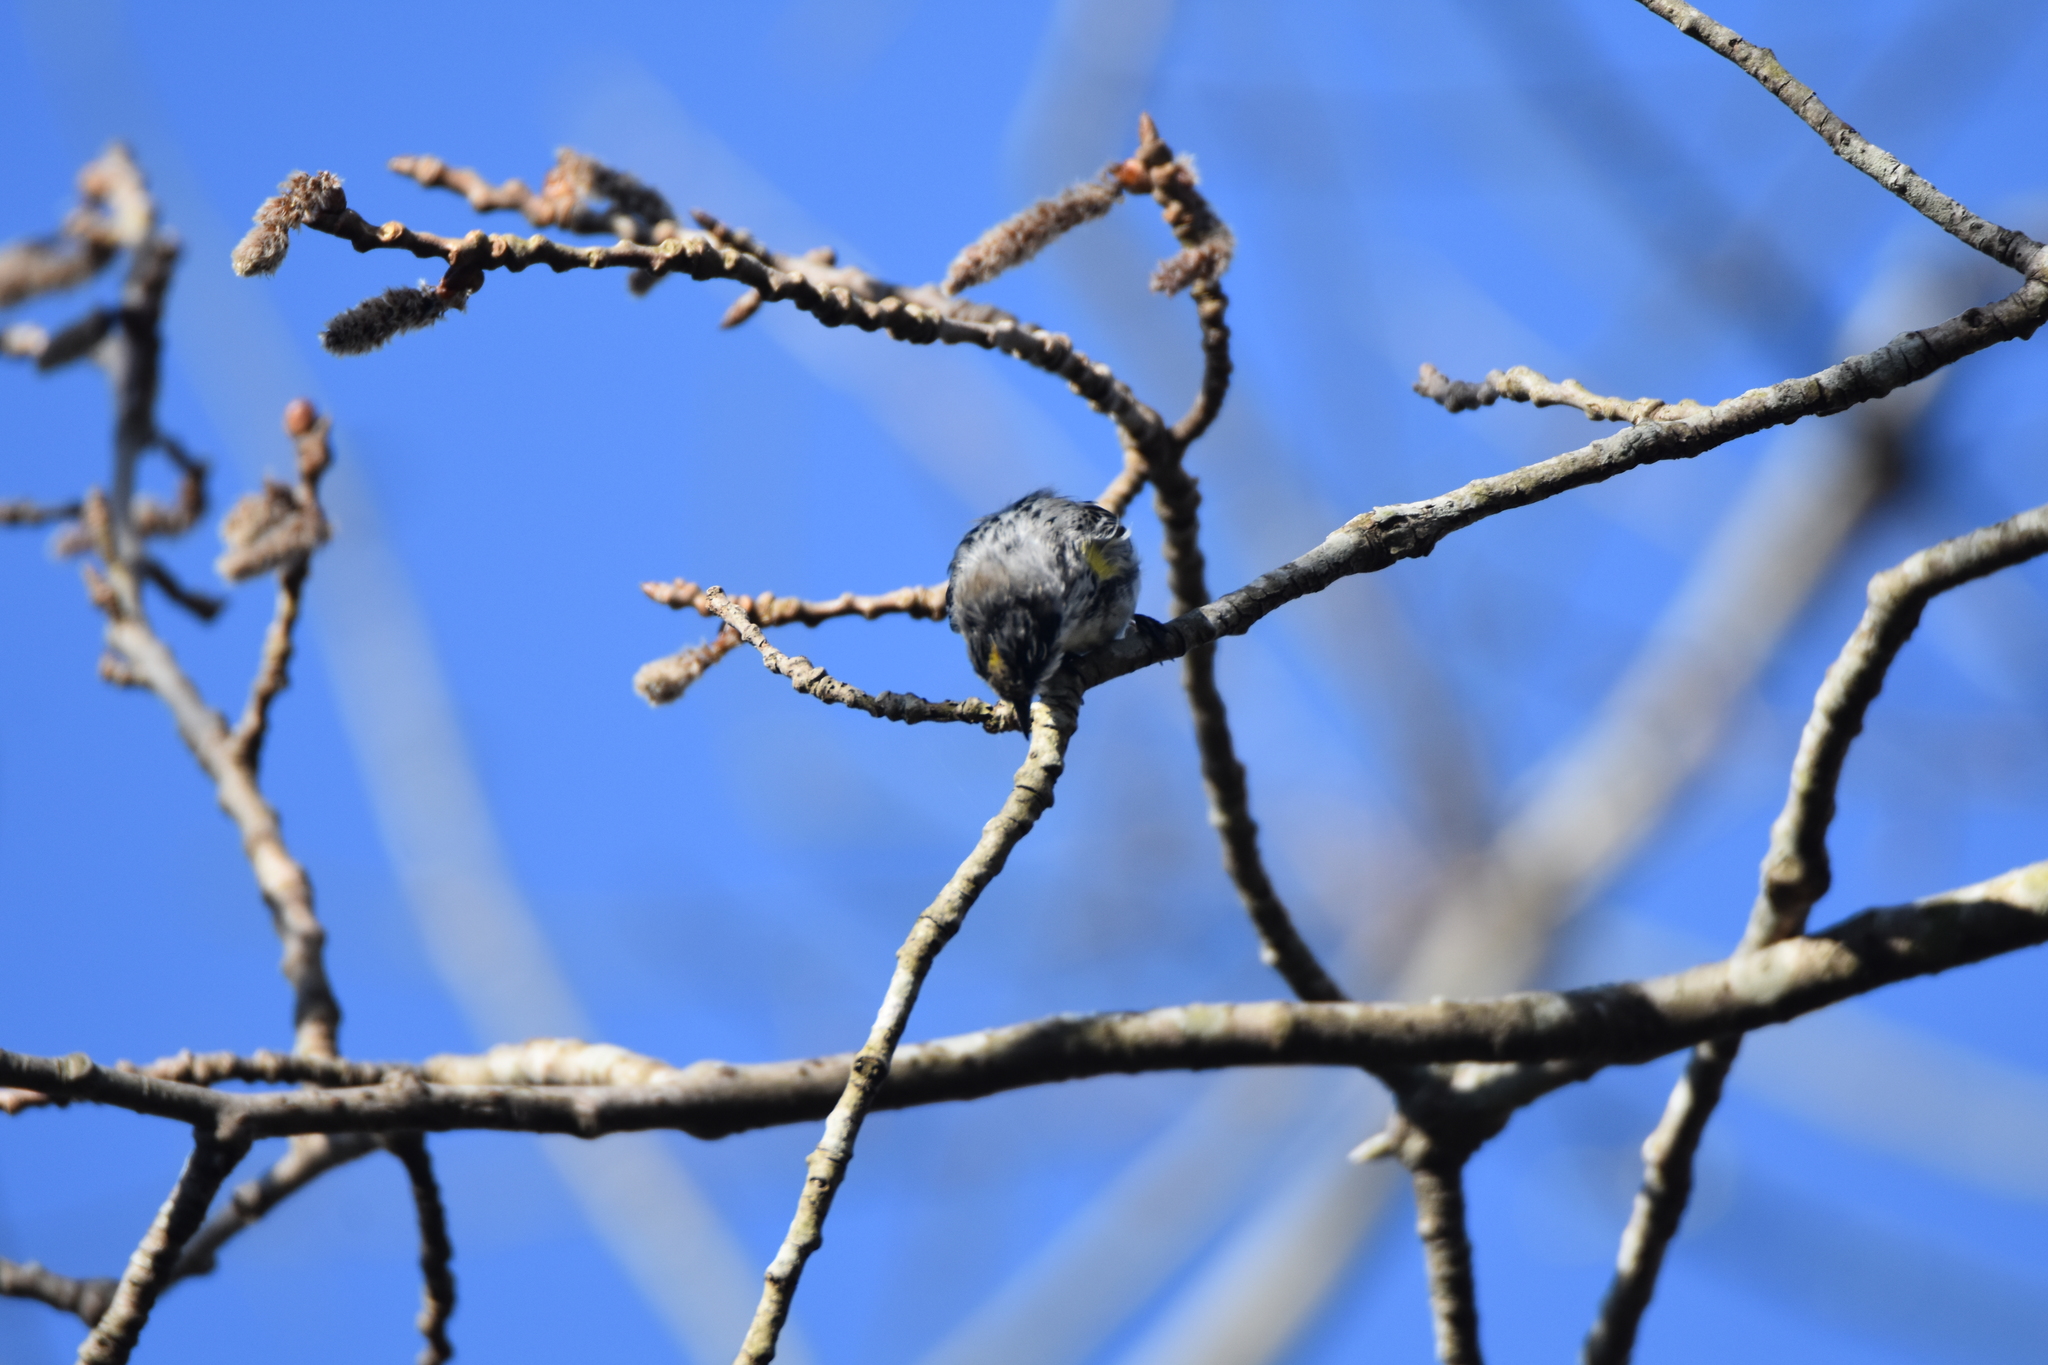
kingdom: Animalia
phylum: Chordata
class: Aves
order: Passeriformes
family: Parulidae
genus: Setophaga
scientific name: Setophaga coronata
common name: Myrtle warbler
